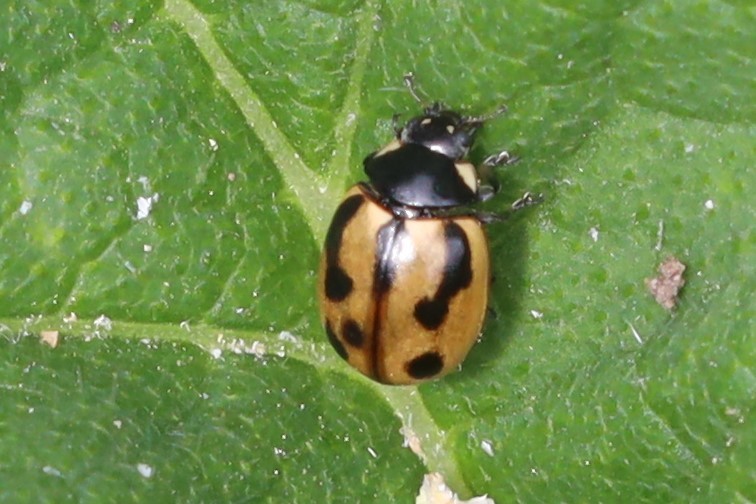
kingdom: Animalia
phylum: Arthropoda
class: Insecta
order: Coleoptera
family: Coccinellidae
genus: Coccinella
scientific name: Coccinella hieroglyphica
